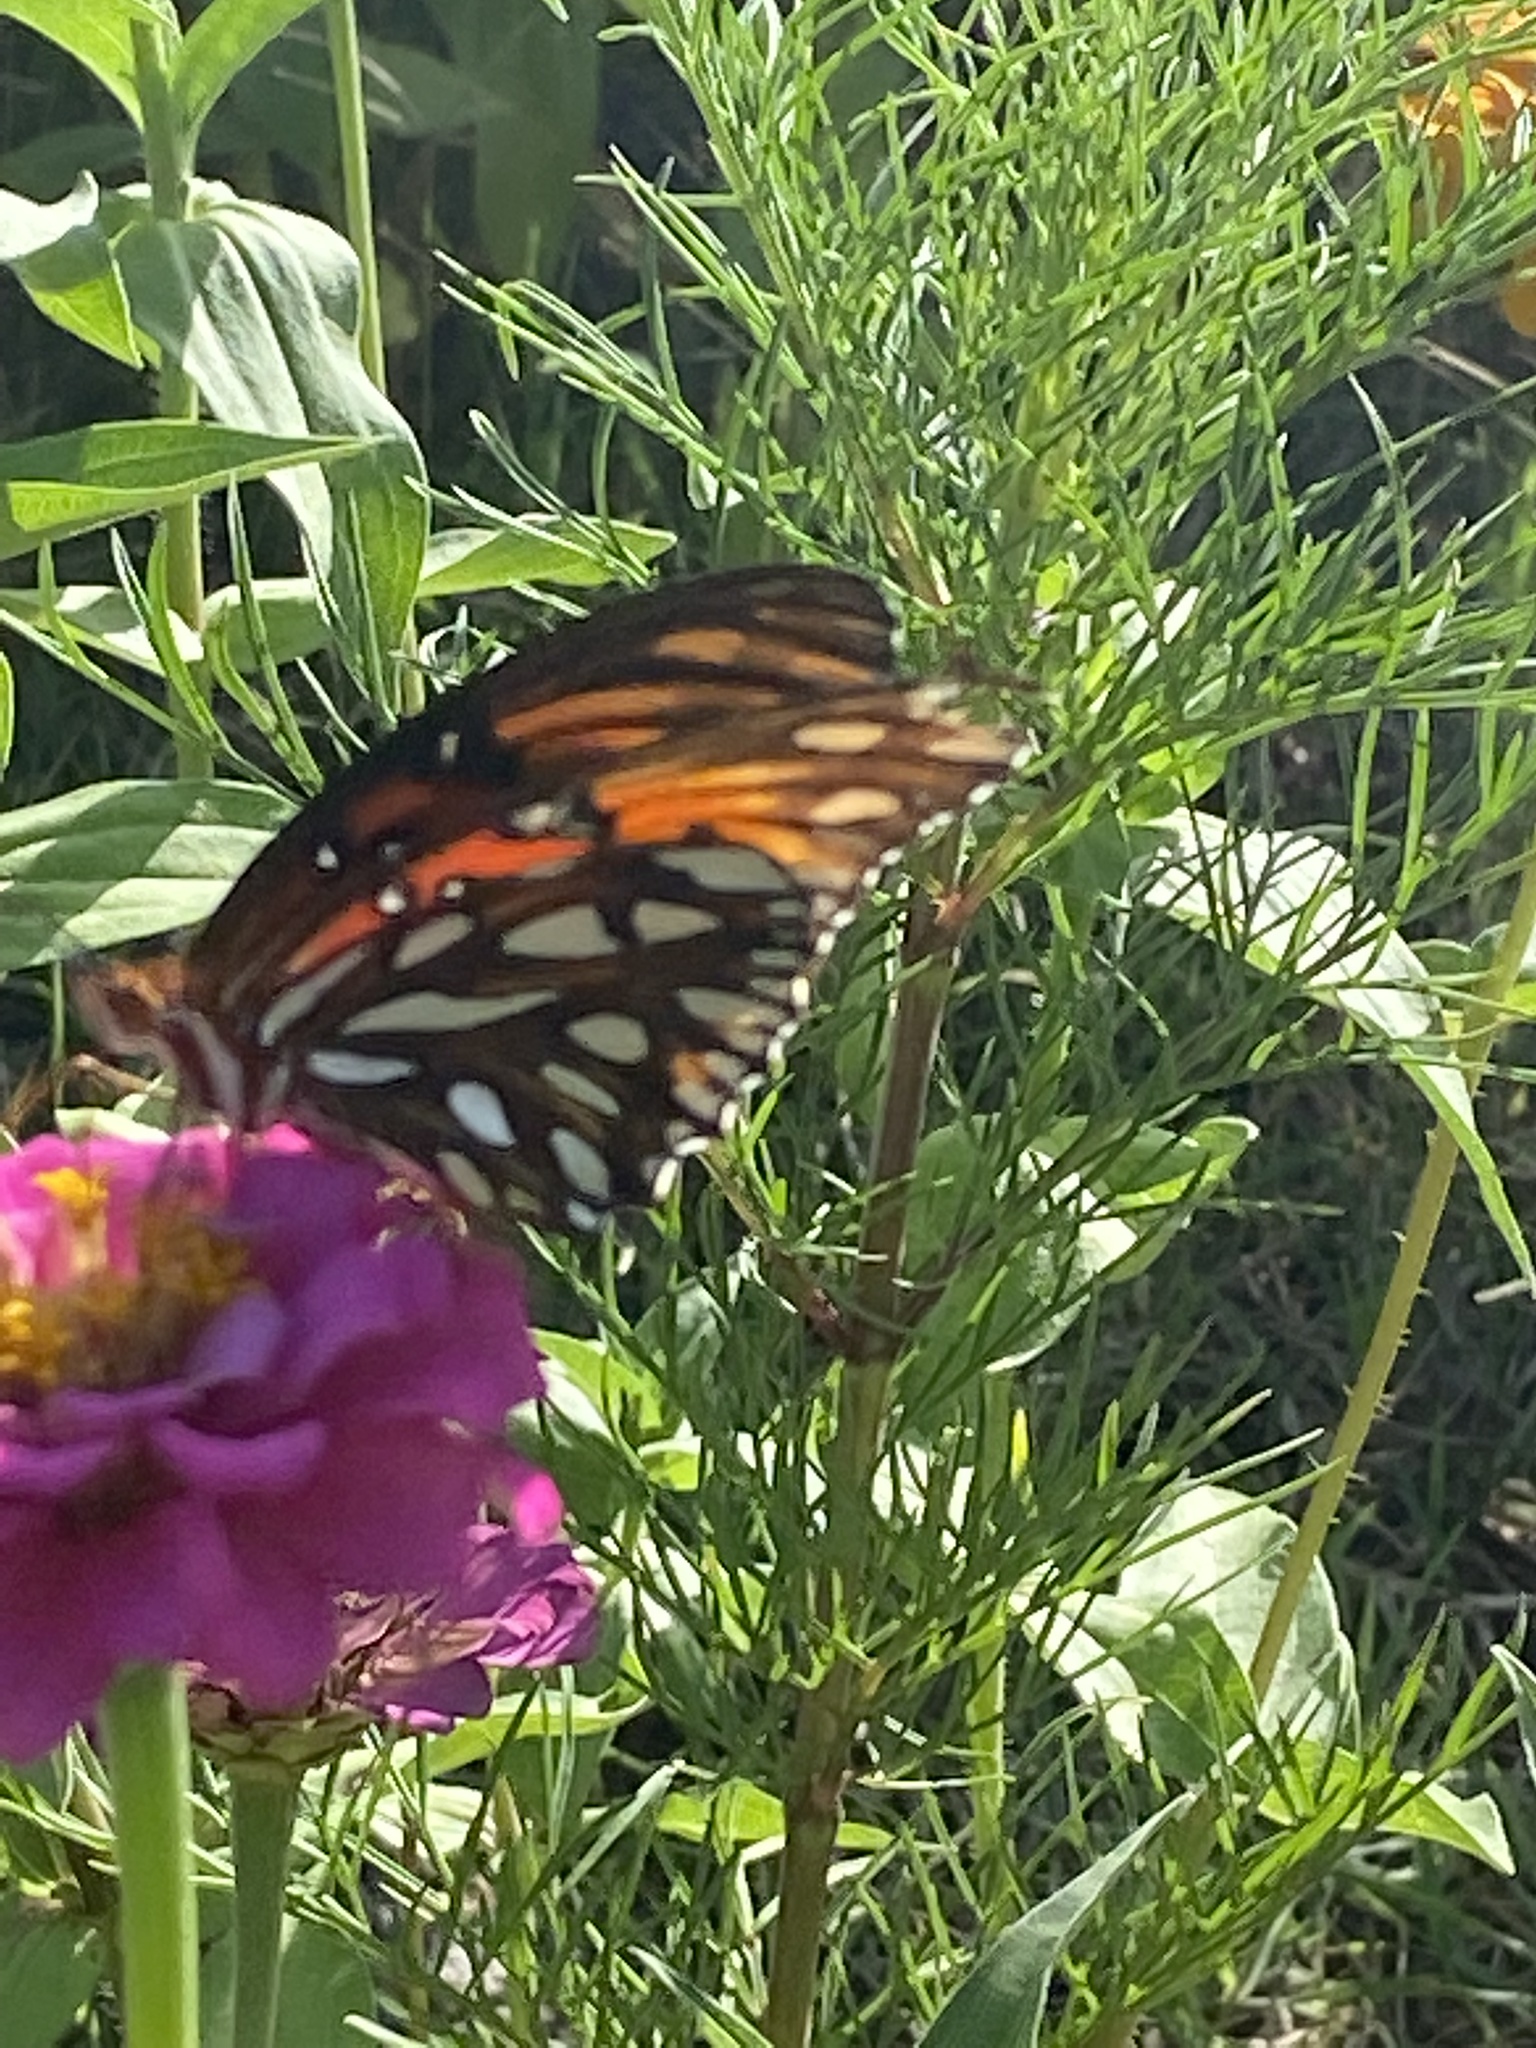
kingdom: Animalia
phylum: Arthropoda
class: Insecta
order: Lepidoptera
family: Nymphalidae
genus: Dione
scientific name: Dione vanillae
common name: Gulf fritillary
